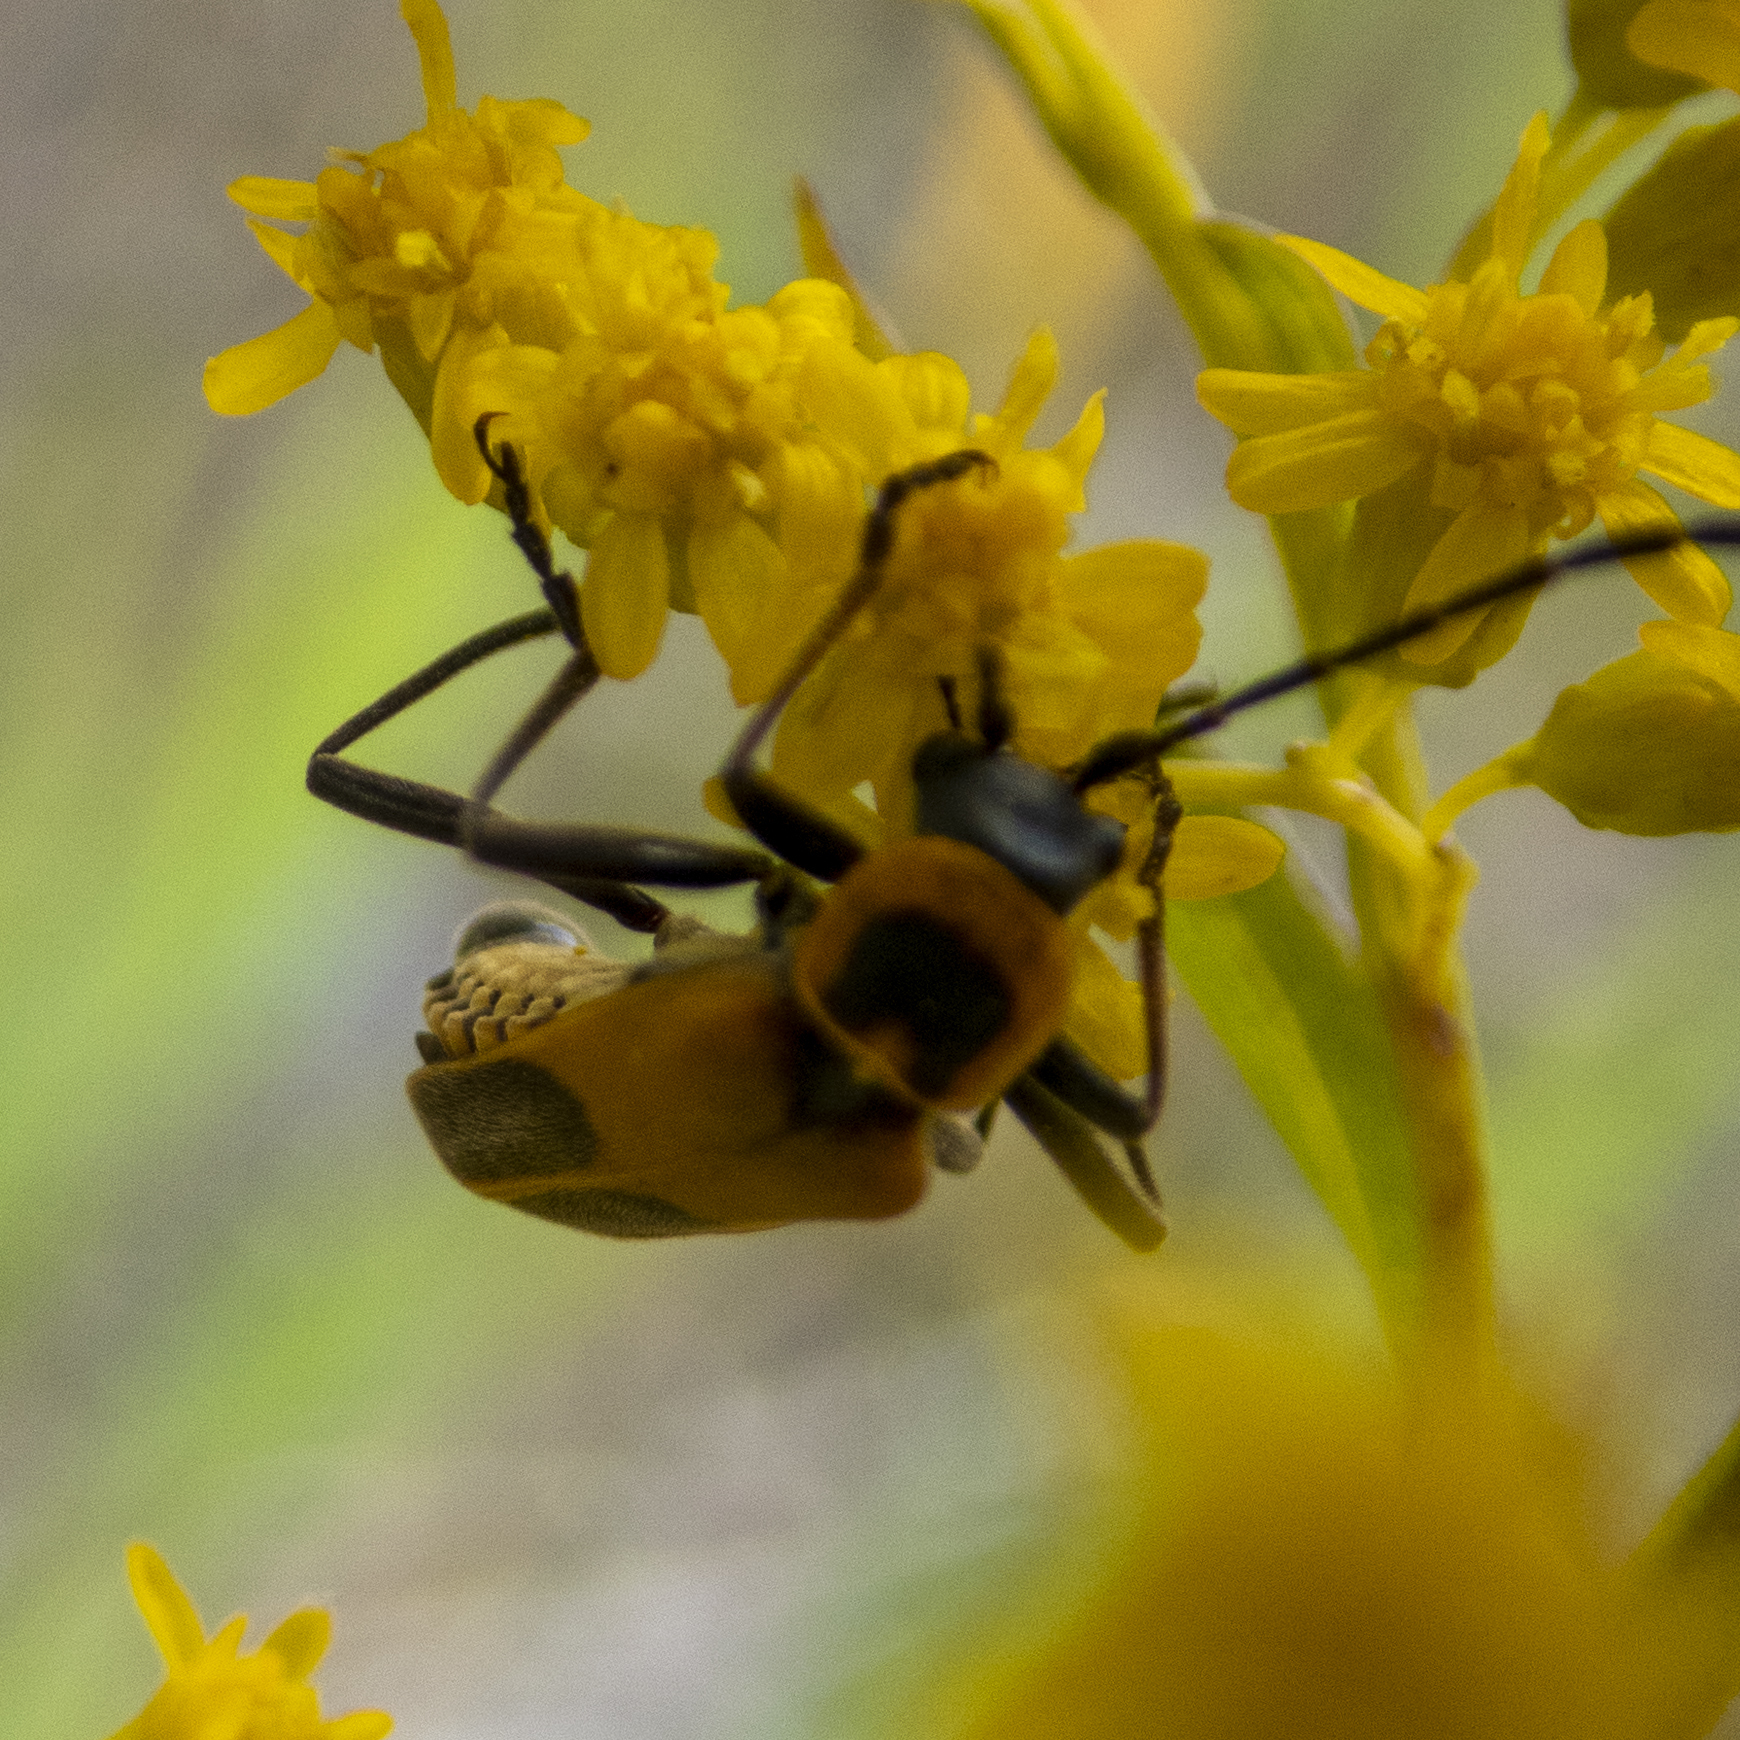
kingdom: Animalia
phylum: Arthropoda
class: Insecta
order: Coleoptera
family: Cantharidae
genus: Chauliognathus
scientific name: Chauliognathus pensylvanicus
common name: Goldenrod soldier beetle
